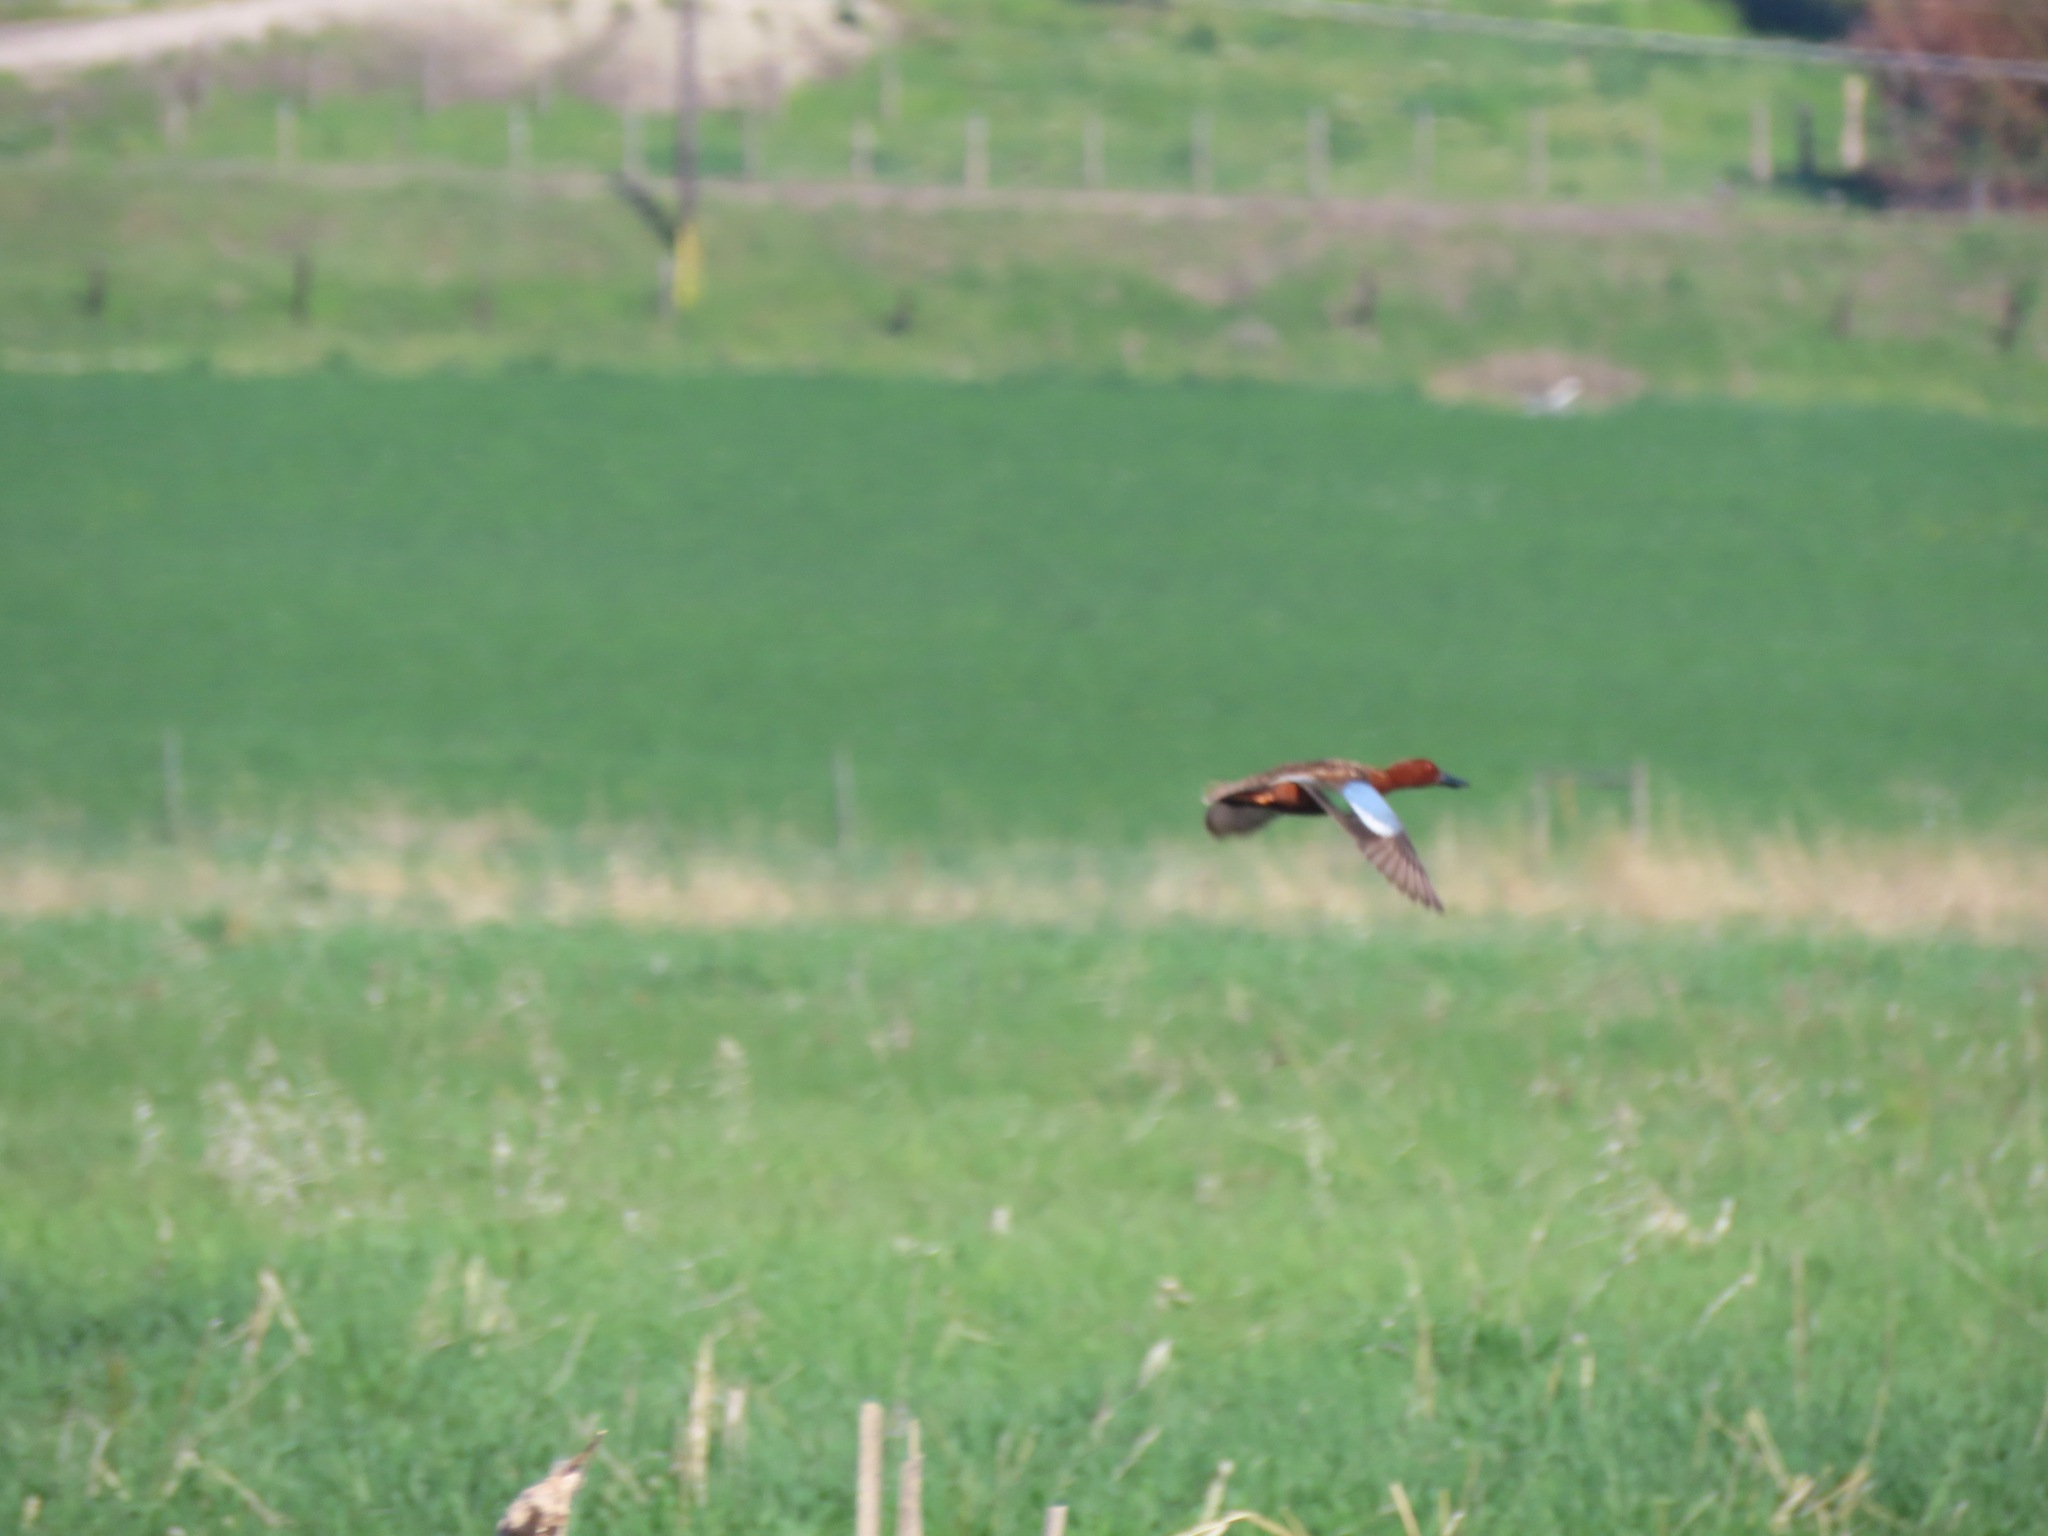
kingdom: Animalia
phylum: Chordata
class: Aves
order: Anseriformes
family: Anatidae
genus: Spatula
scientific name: Spatula cyanoptera
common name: Cinnamon teal
